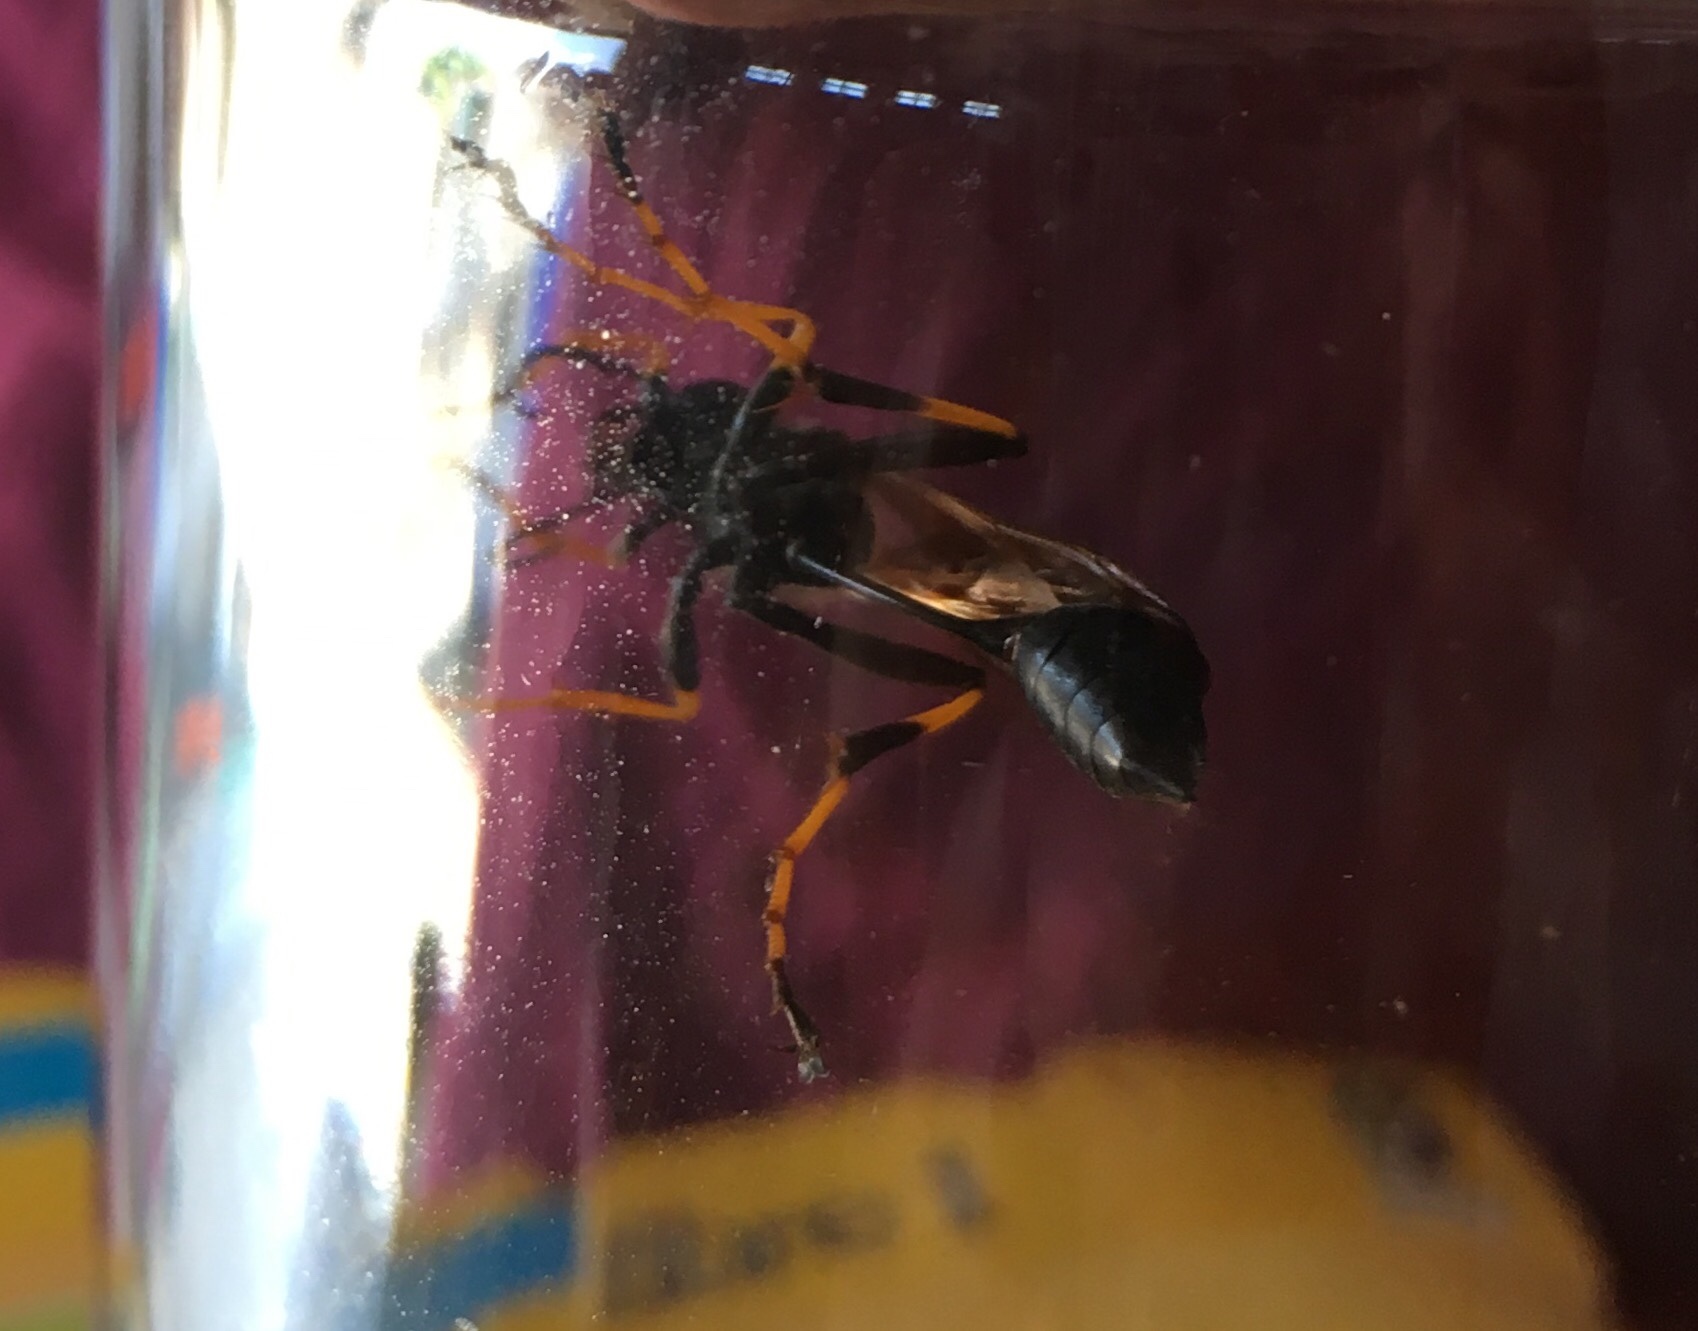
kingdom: Animalia
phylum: Arthropoda
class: Insecta
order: Hymenoptera
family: Sphecidae
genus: Sceliphron
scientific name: Sceliphron caementarium
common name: Mud dauber
